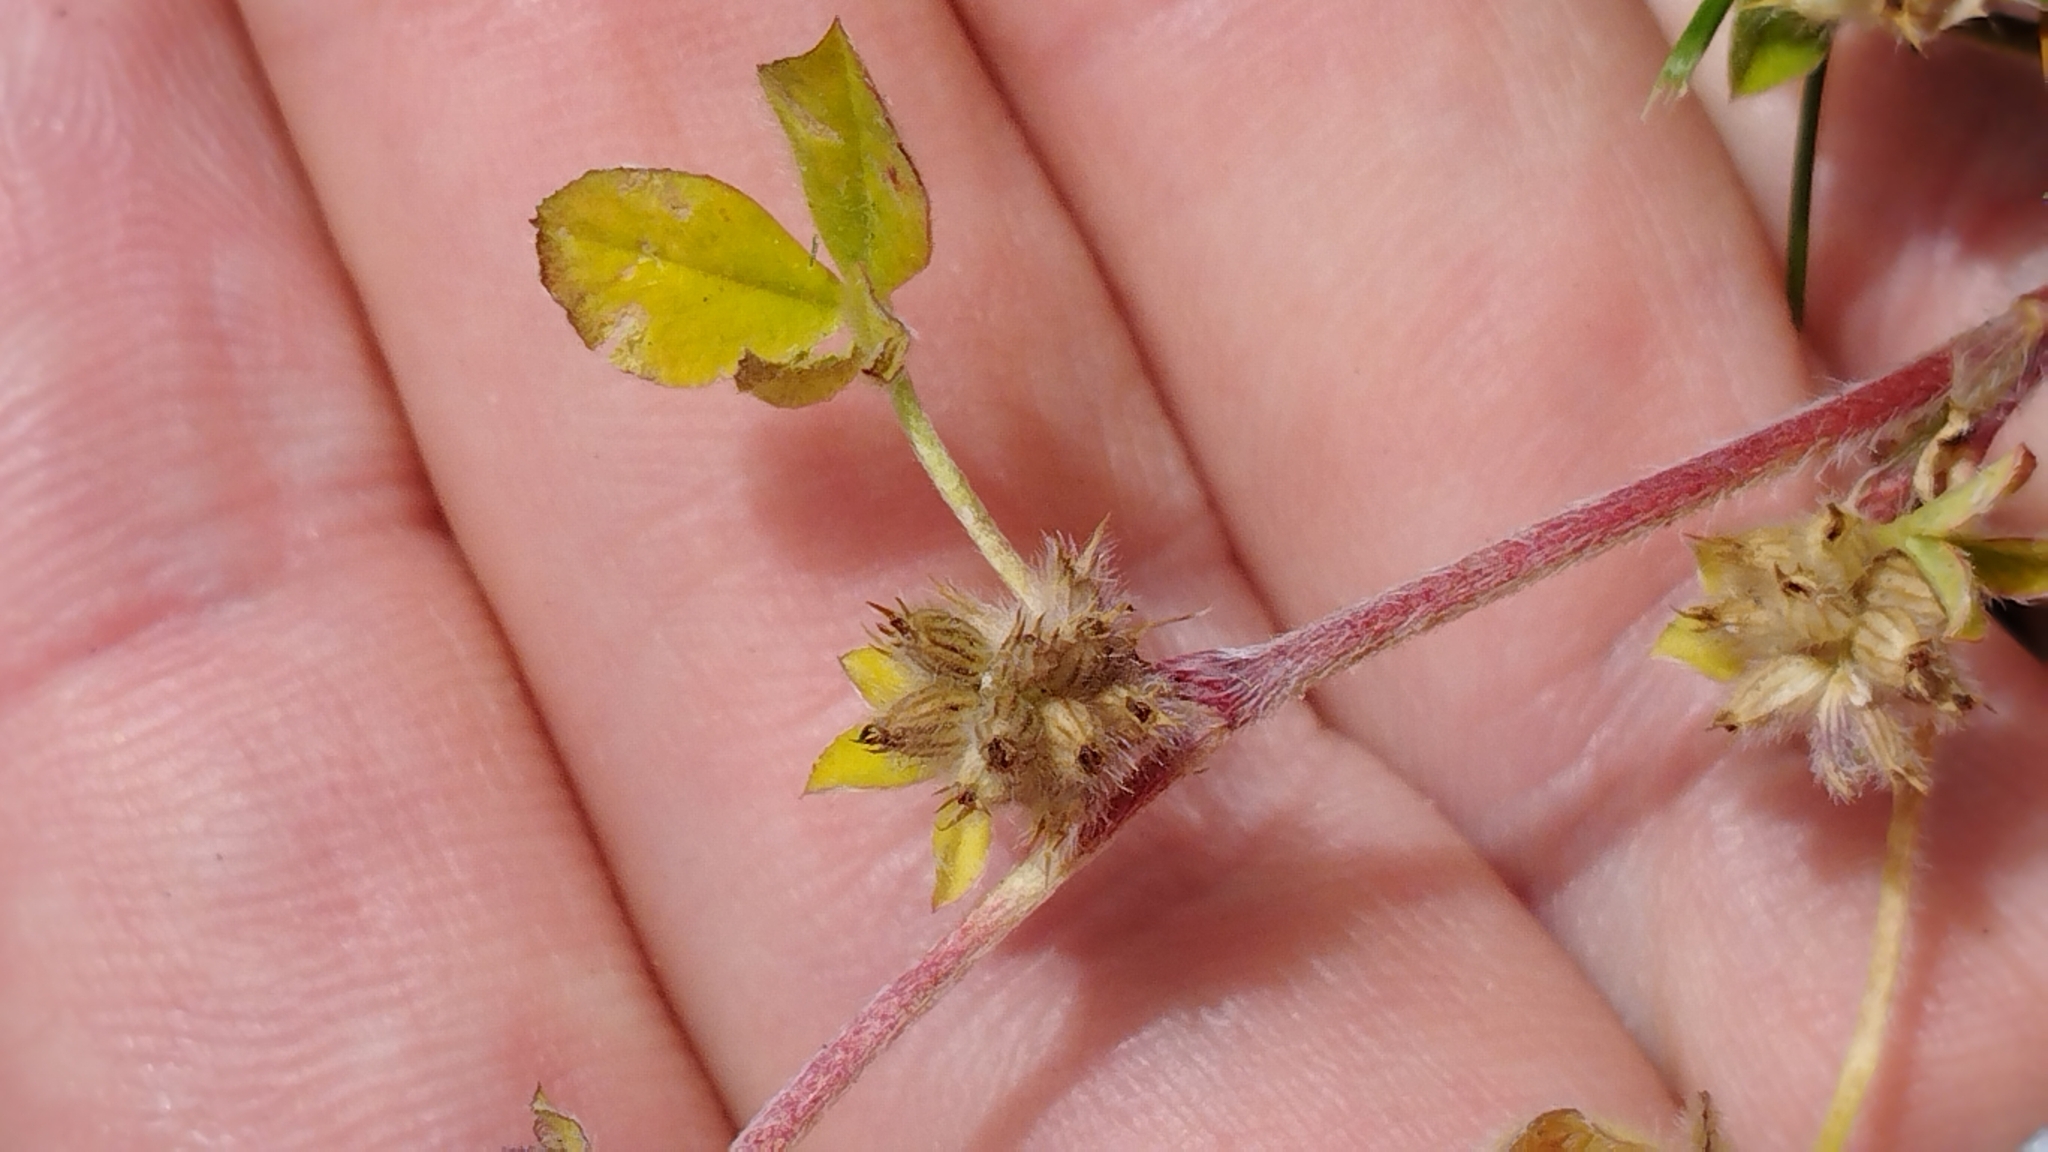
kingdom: Plantae
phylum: Tracheophyta
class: Magnoliopsida
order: Fabales
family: Fabaceae
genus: Trifolium
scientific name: Trifolium striatum
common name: Knotted clover
